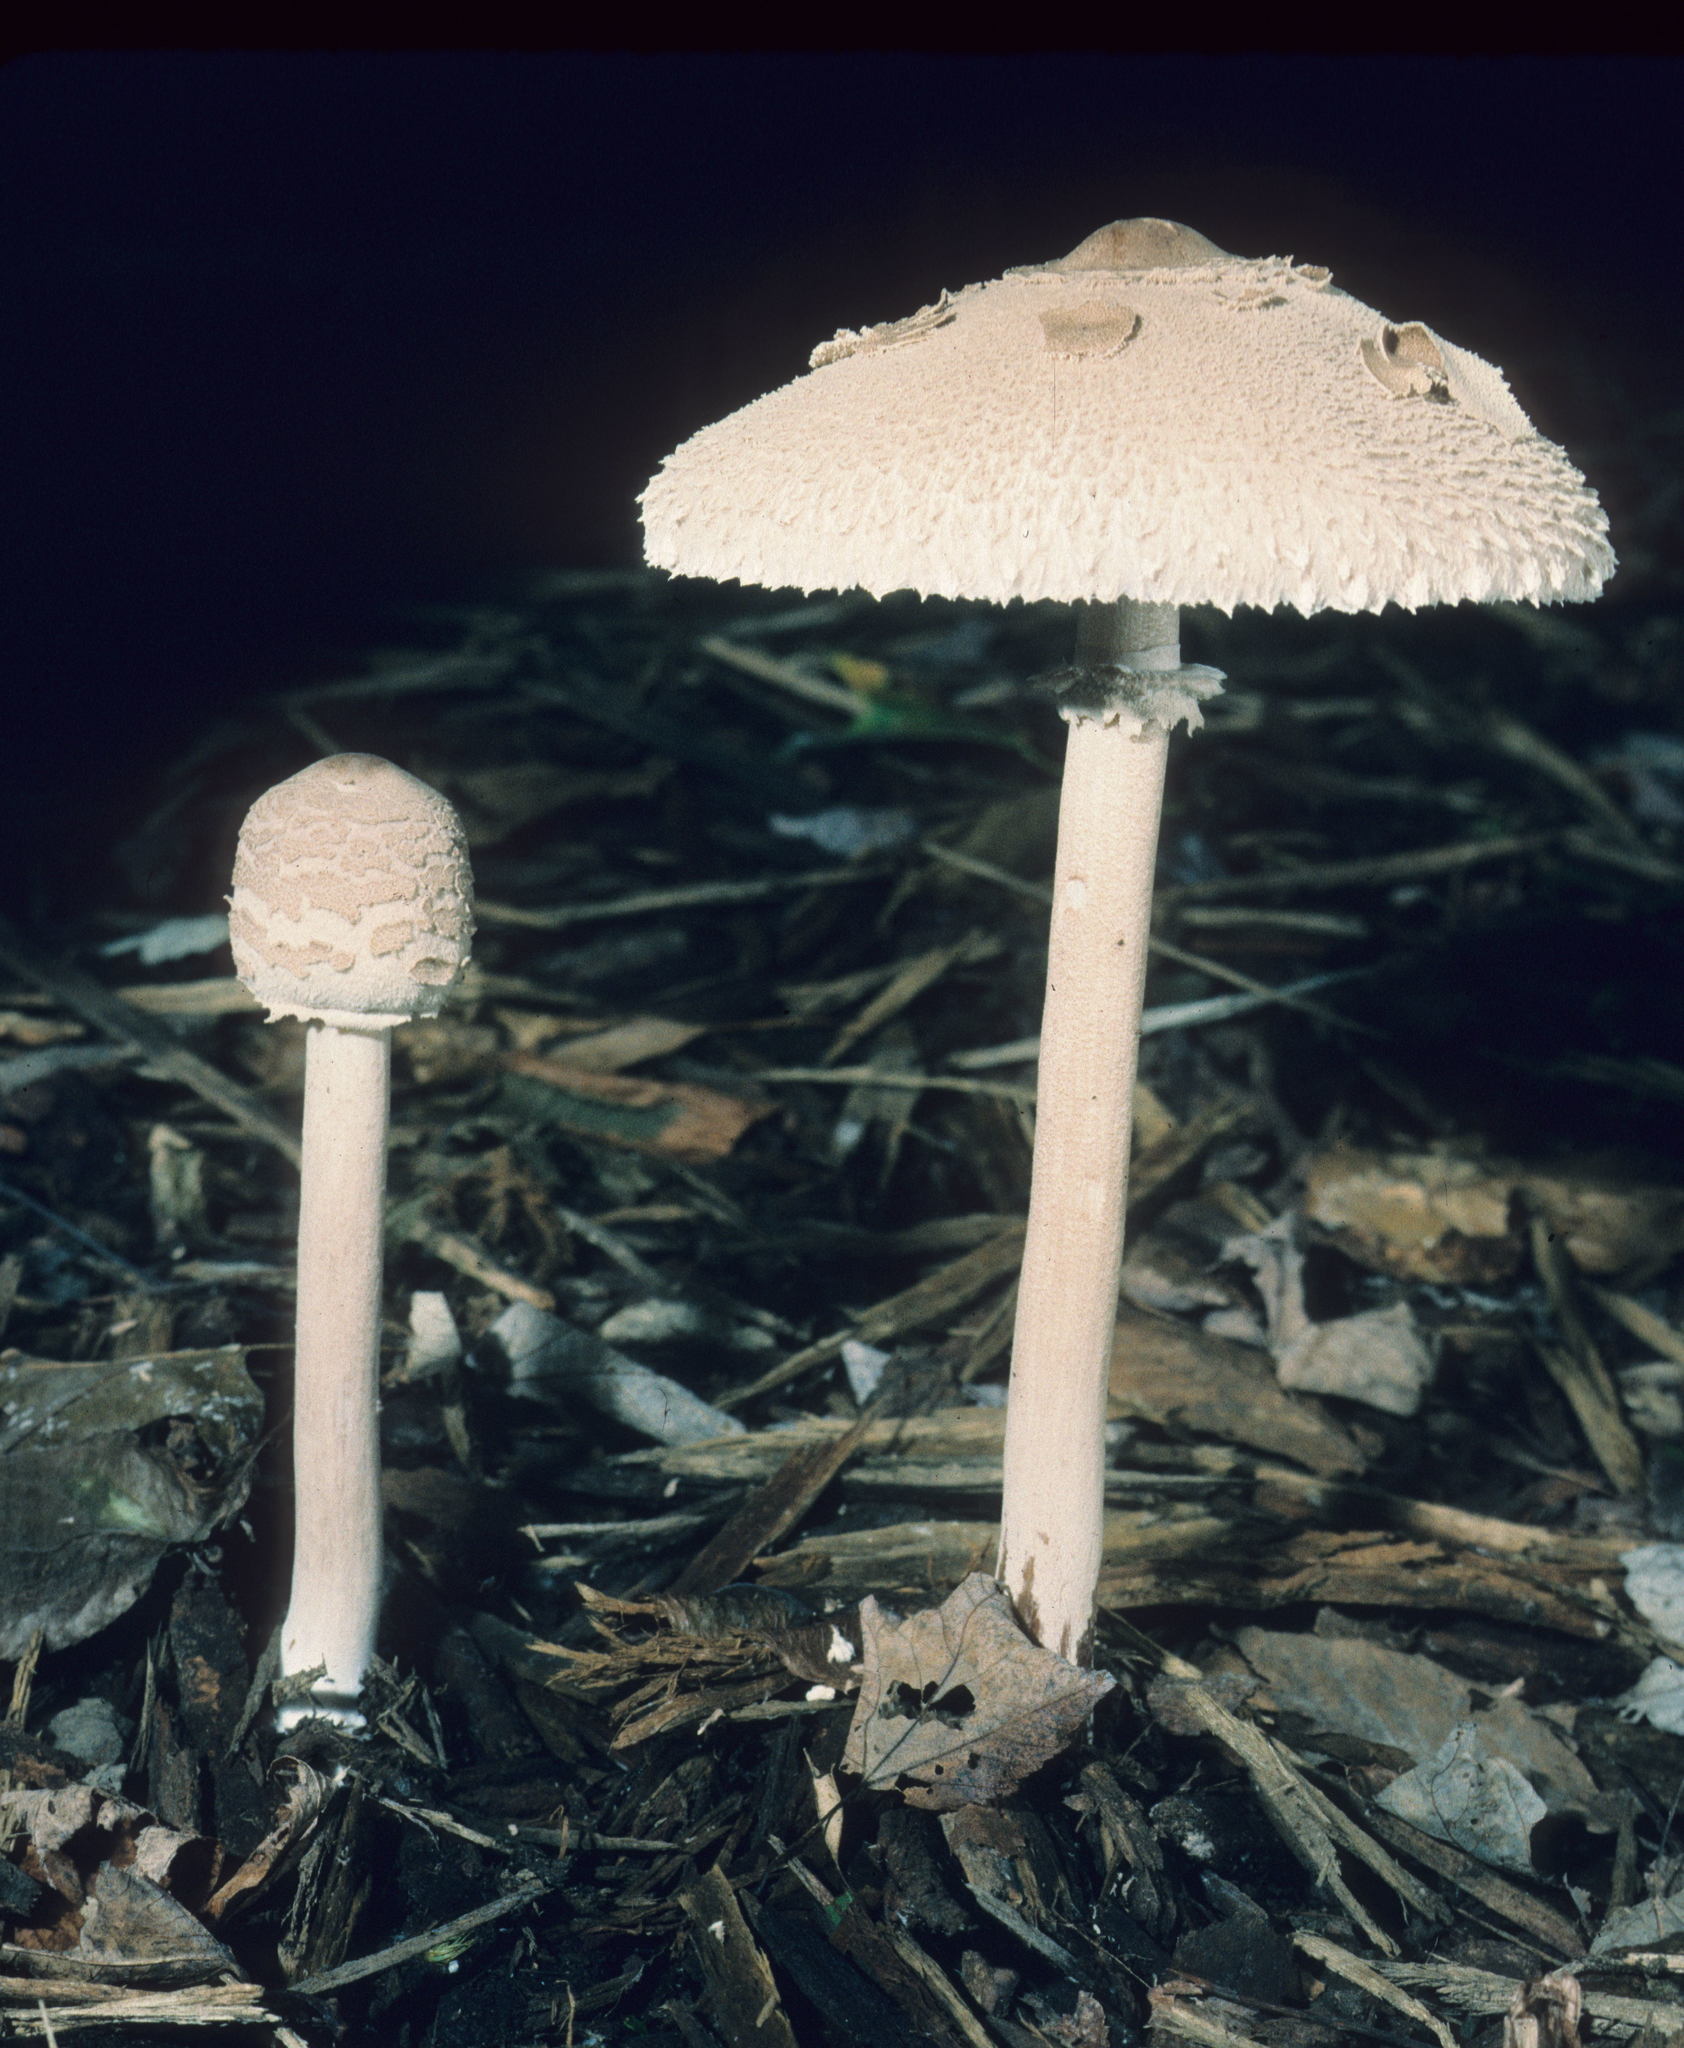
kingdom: Fungi
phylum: Basidiomycota
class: Agaricomycetes
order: Agaricales
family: Agaricaceae
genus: Macrolepiota
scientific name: Macrolepiota prominens
